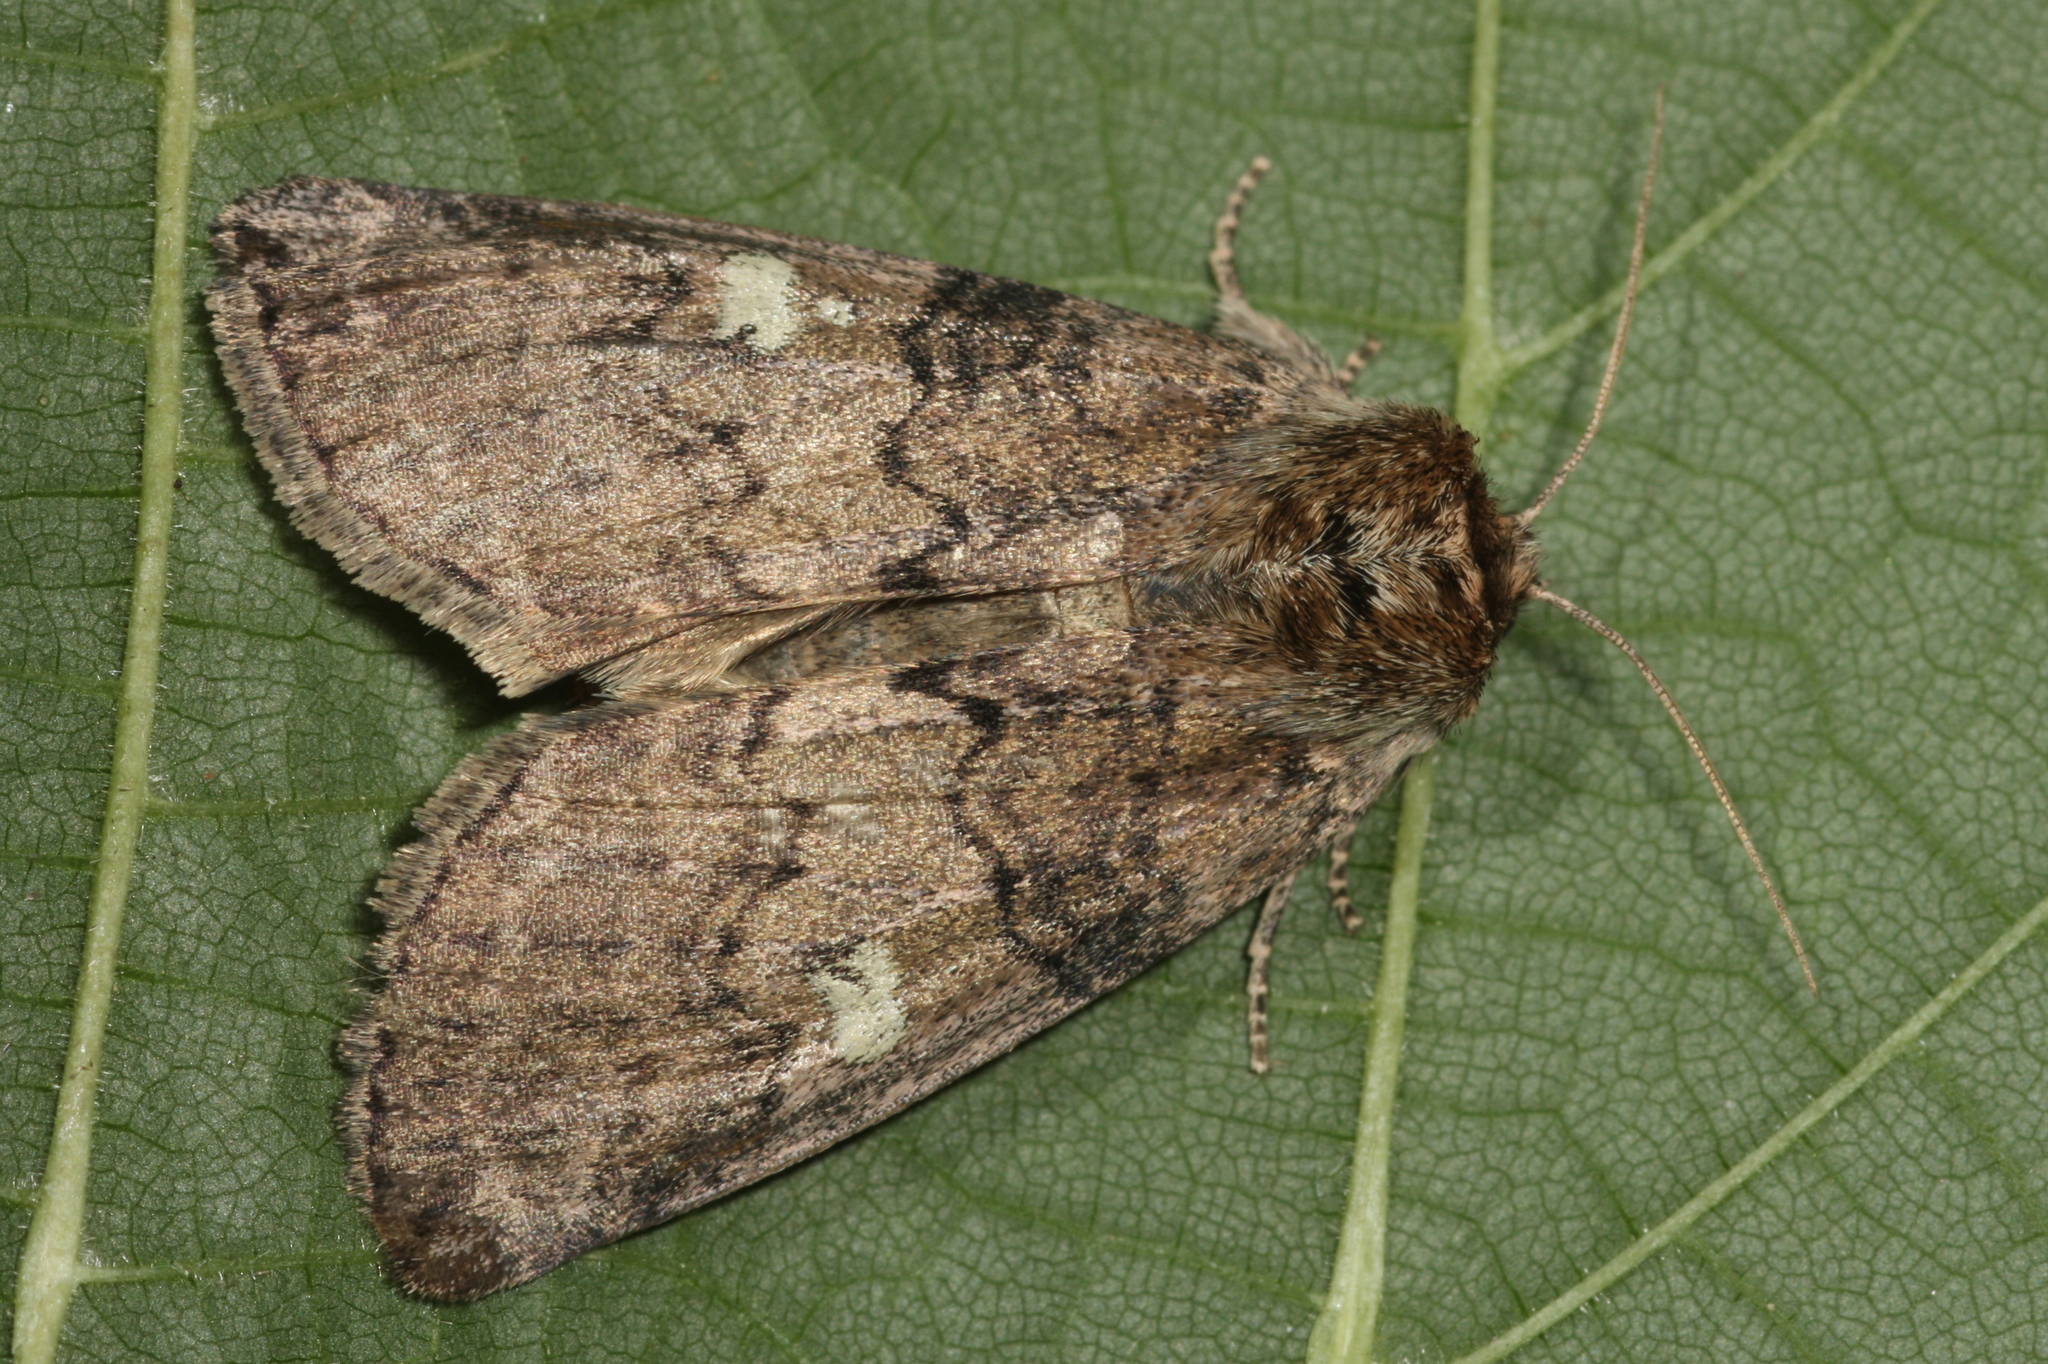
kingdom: Animalia
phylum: Arthropoda
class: Insecta
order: Lepidoptera
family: Drepanidae
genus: Tethea
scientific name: Tethea or
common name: Poplar lutestring
